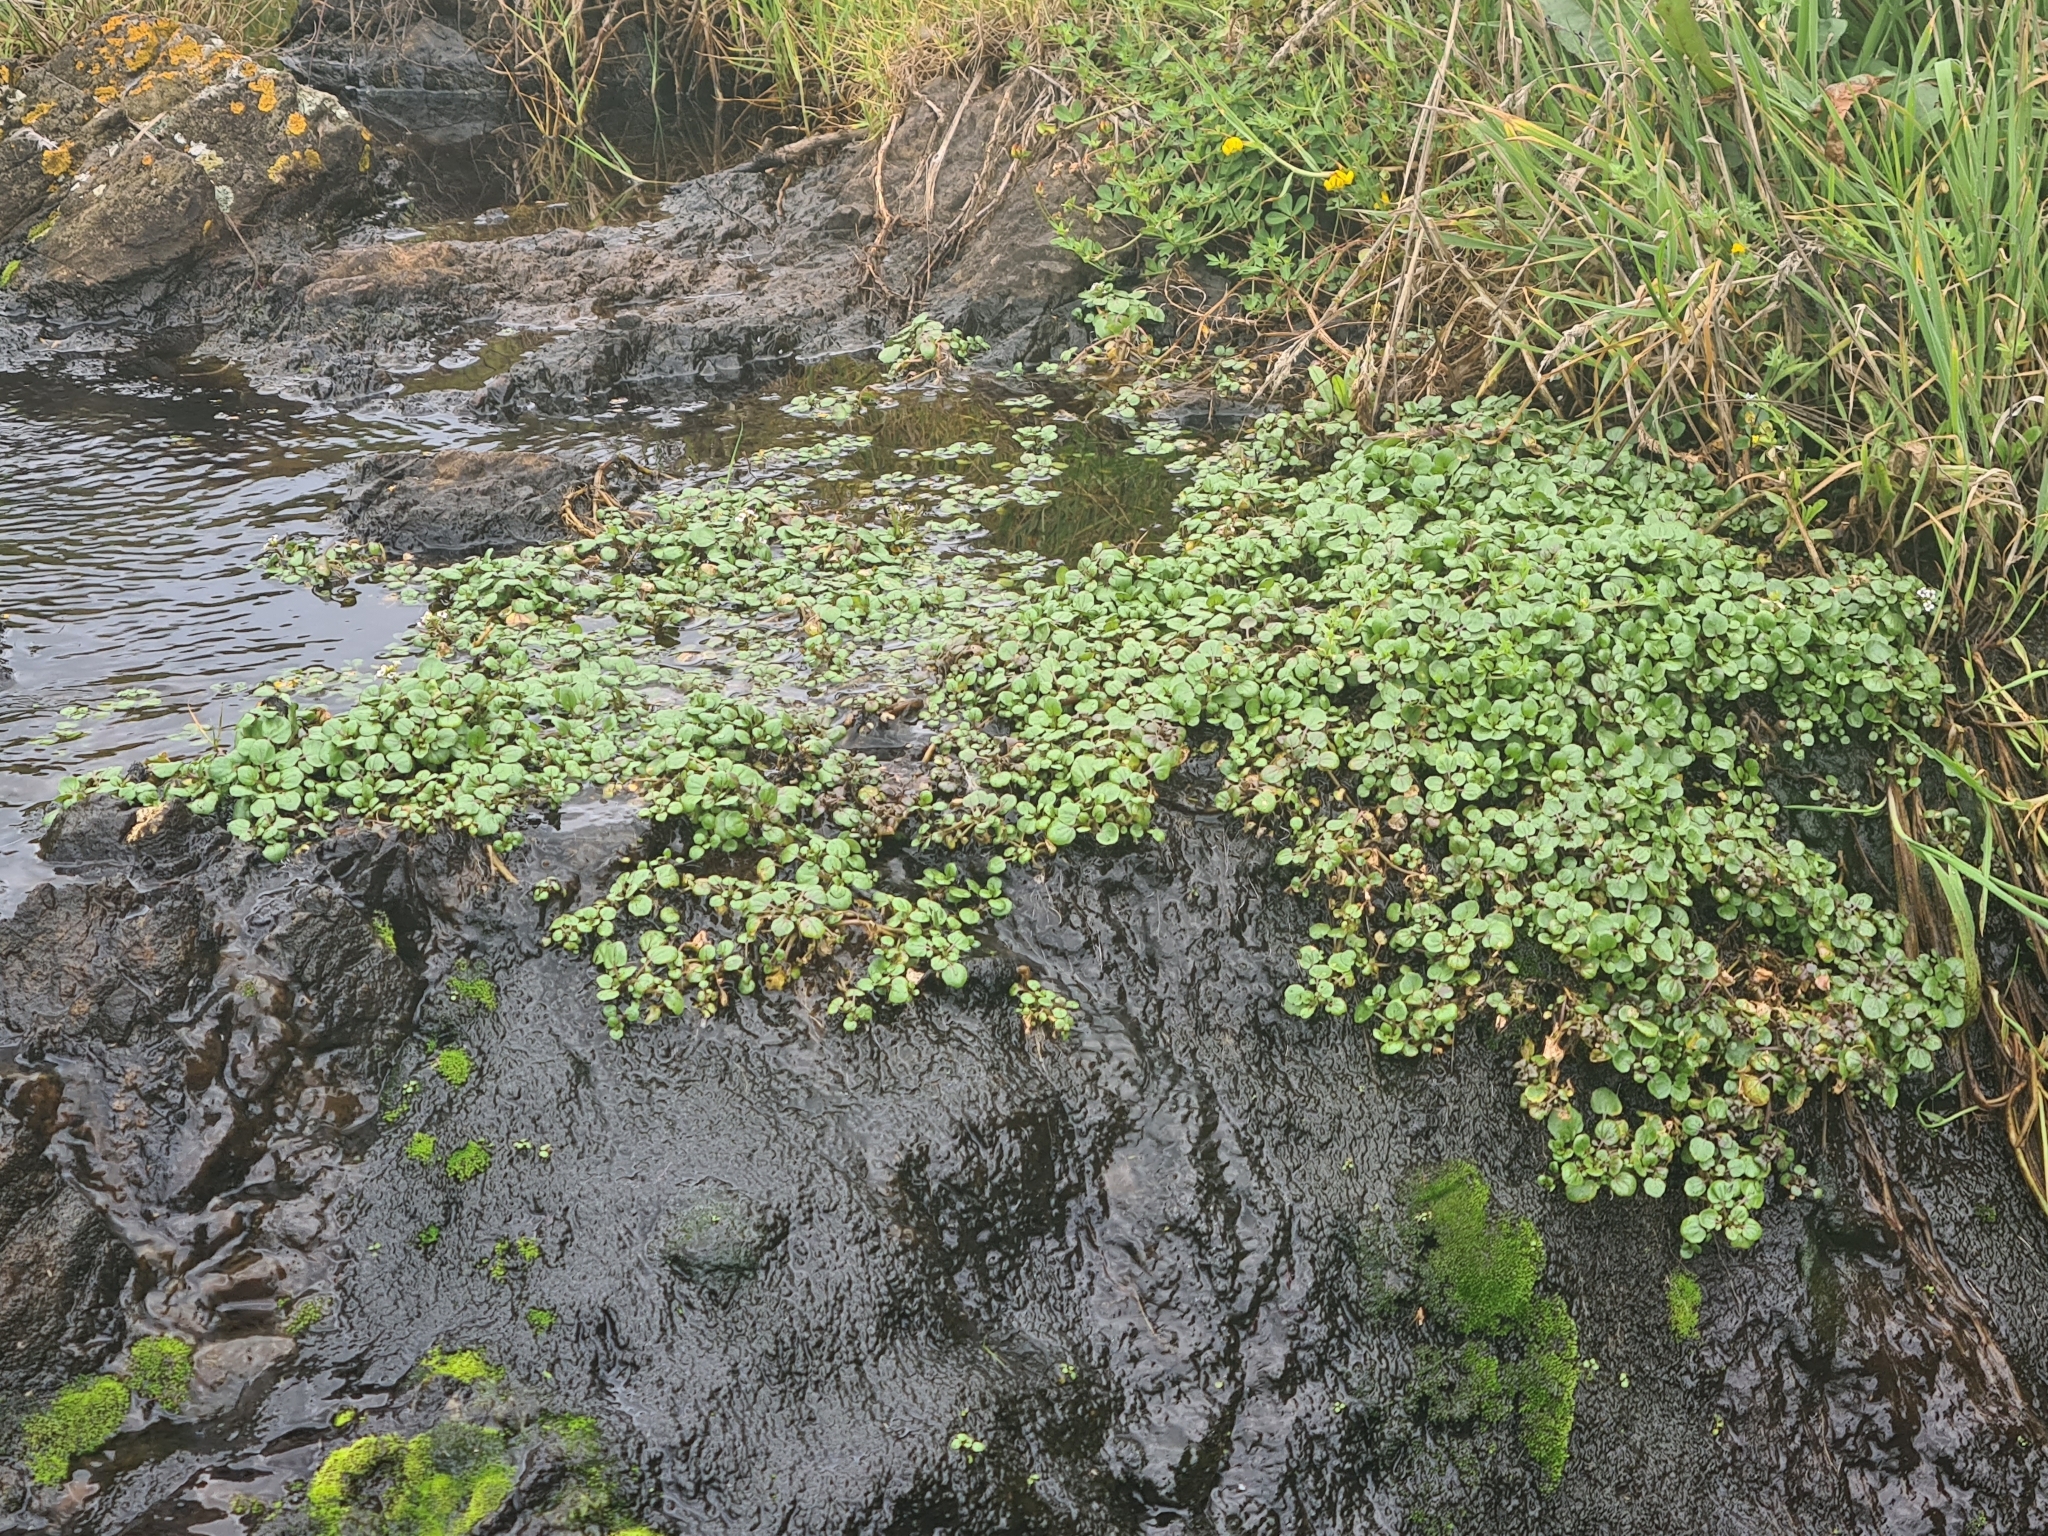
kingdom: Plantae
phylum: Tracheophyta
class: Magnoliopsida
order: Brassicales
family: Brassicaceae
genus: Nasturtium
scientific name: Nasturtium officinale
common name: Watercress
